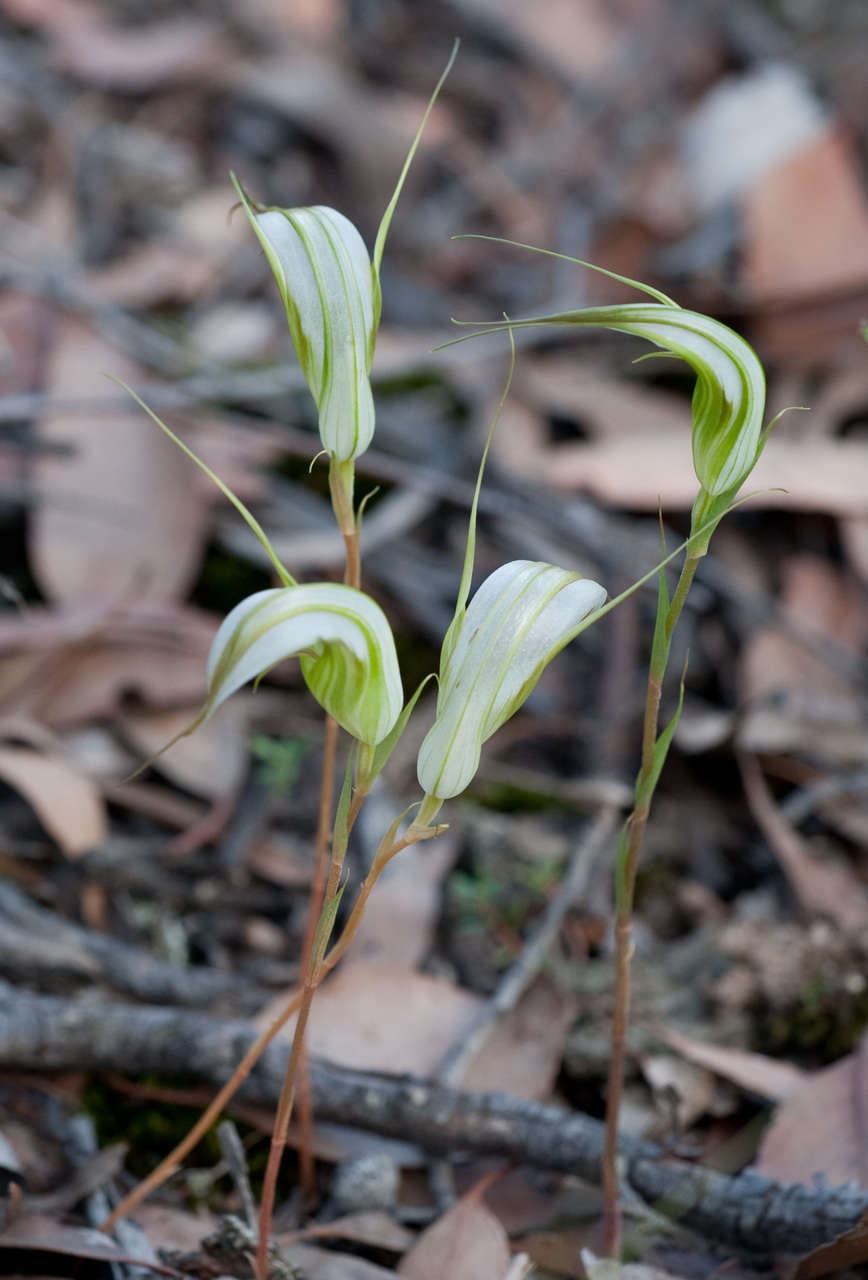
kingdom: Plantae
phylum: Tracheophyta
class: Liliopsida
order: Asparagales
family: Orchidaceae
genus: Pterostylis
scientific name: Pterostylis ampliata
